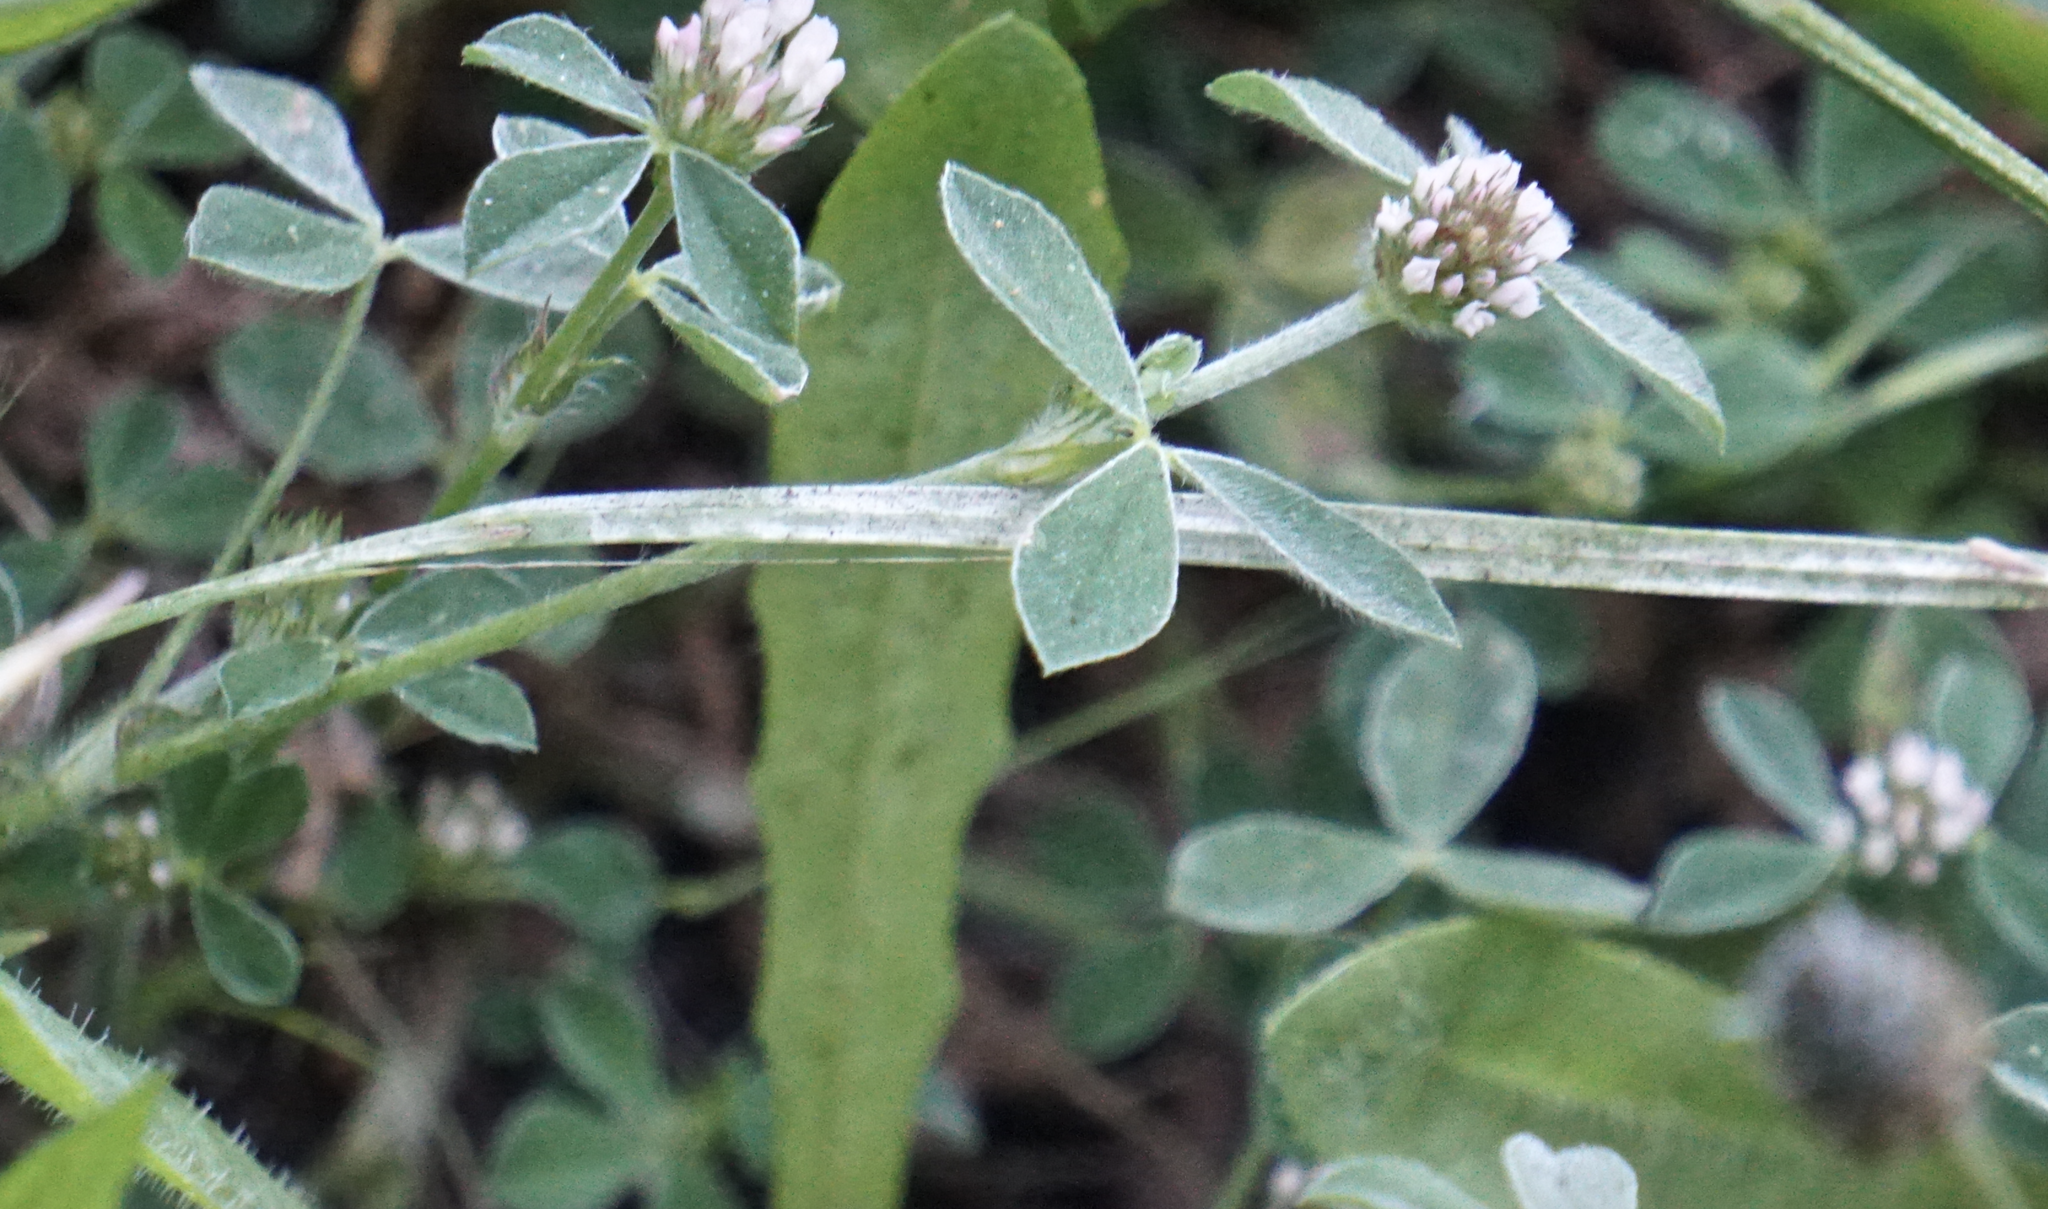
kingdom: Plantae
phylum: Tracheophyta
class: Magnoliopsida
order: Fabales
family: Fabaceae
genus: Trifolium
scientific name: Trifolium striatum
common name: Knotted clover
